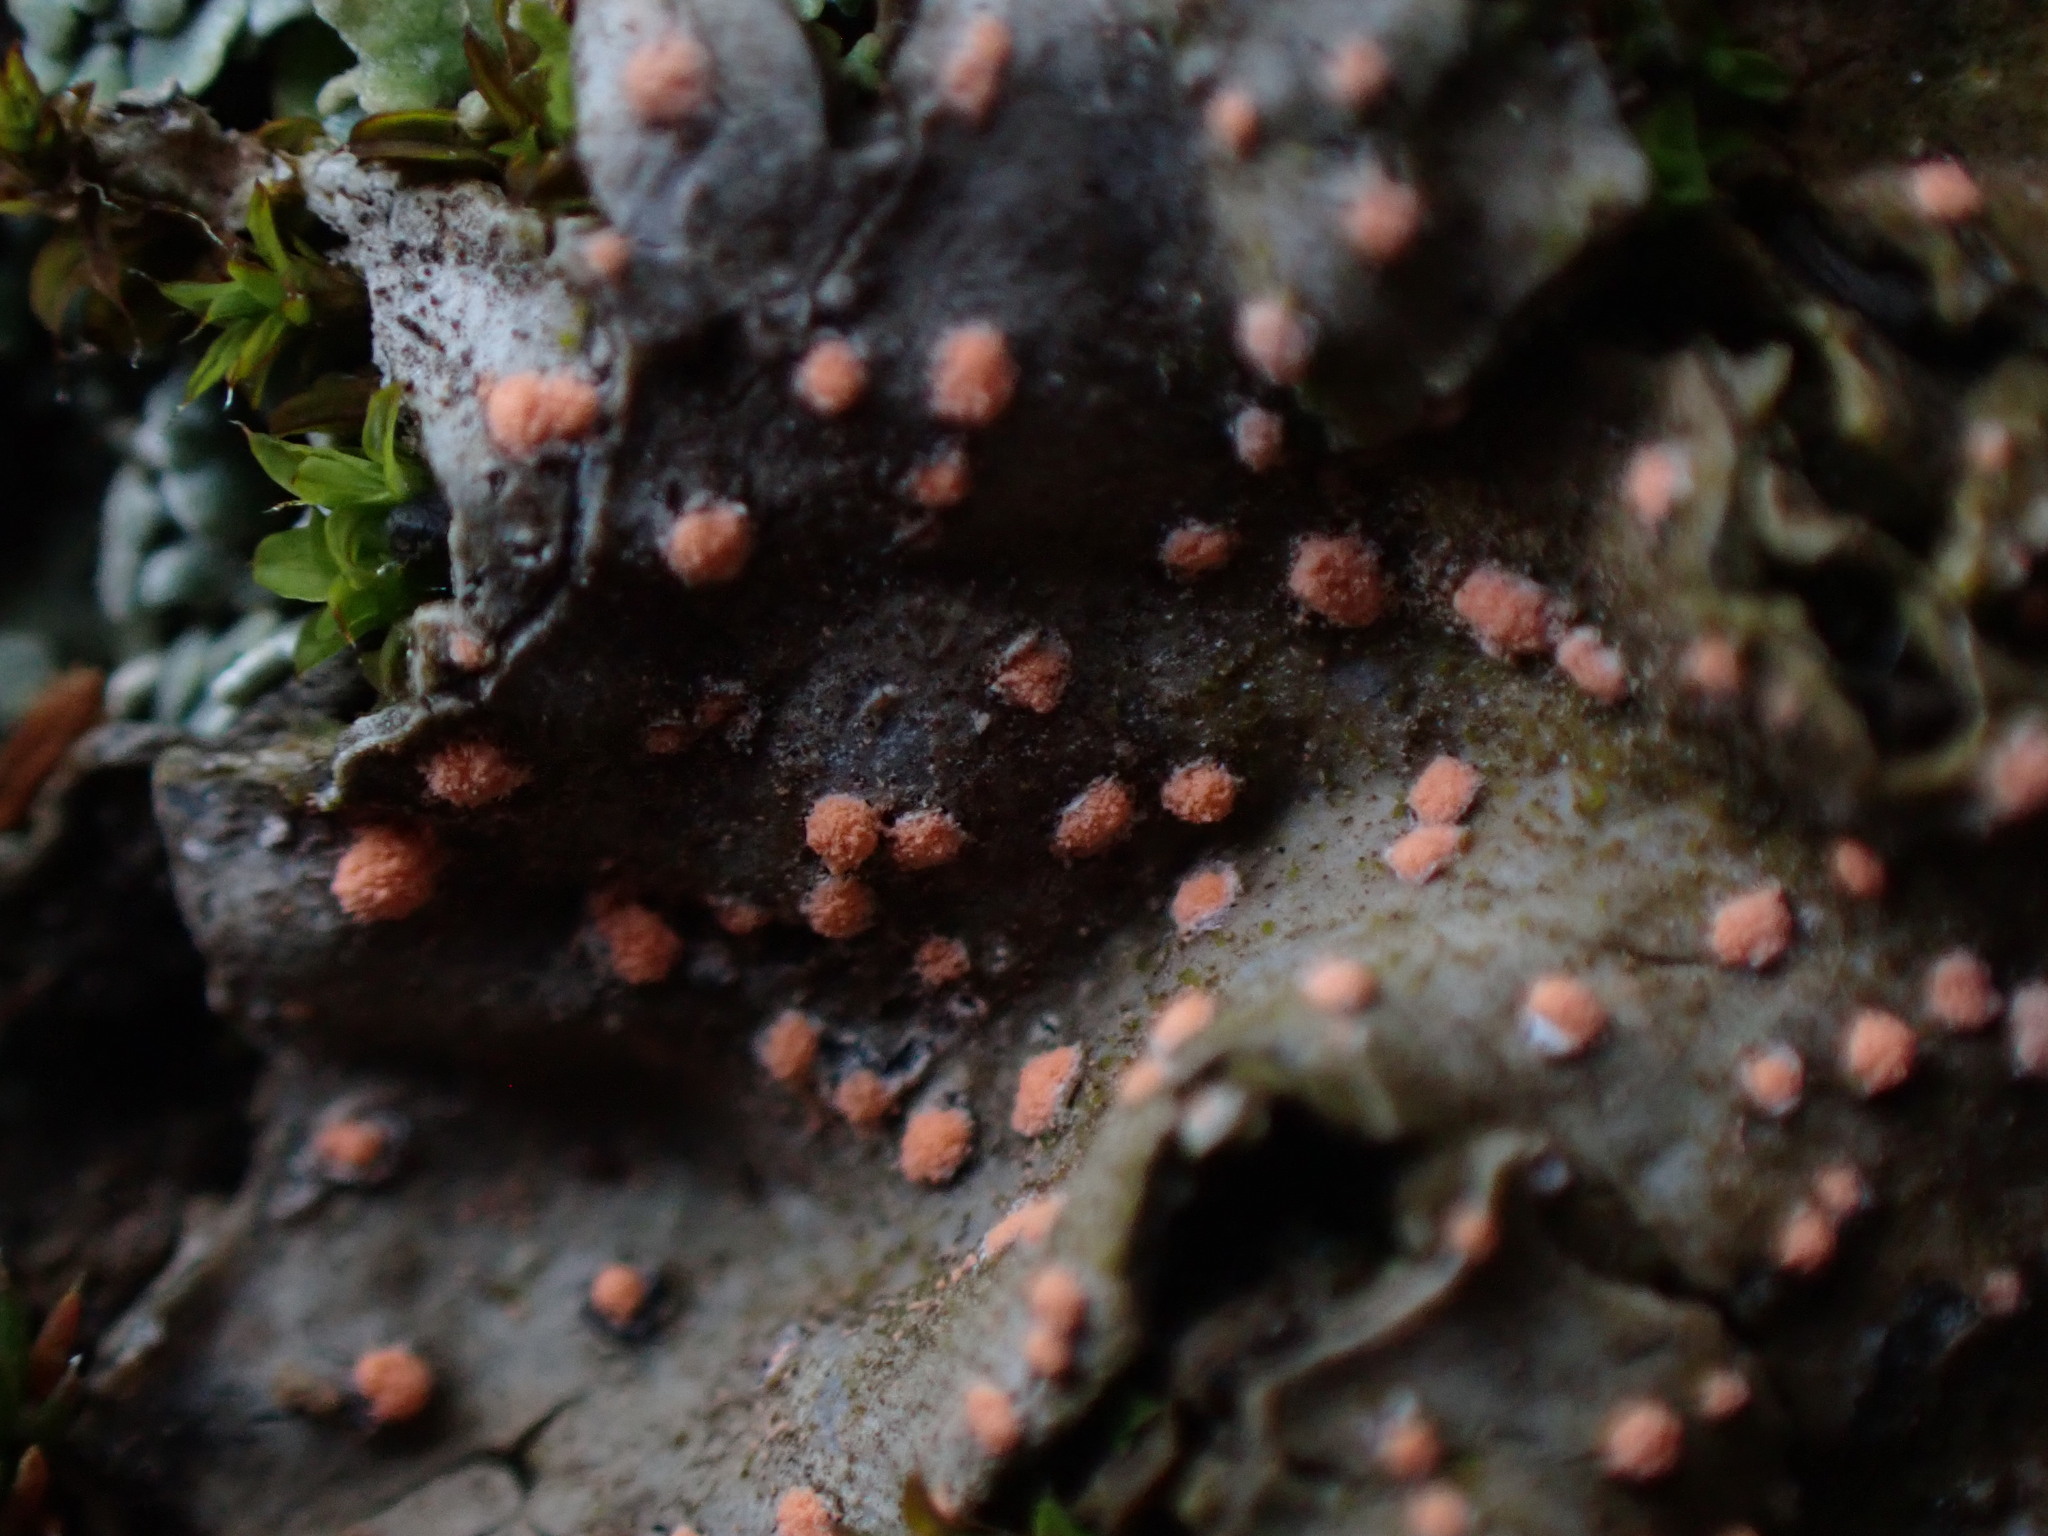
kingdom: Fungi
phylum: Ascomycota
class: Sordariomycetes
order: Hypocreales
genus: Illosporium
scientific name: Illosporium roseum
